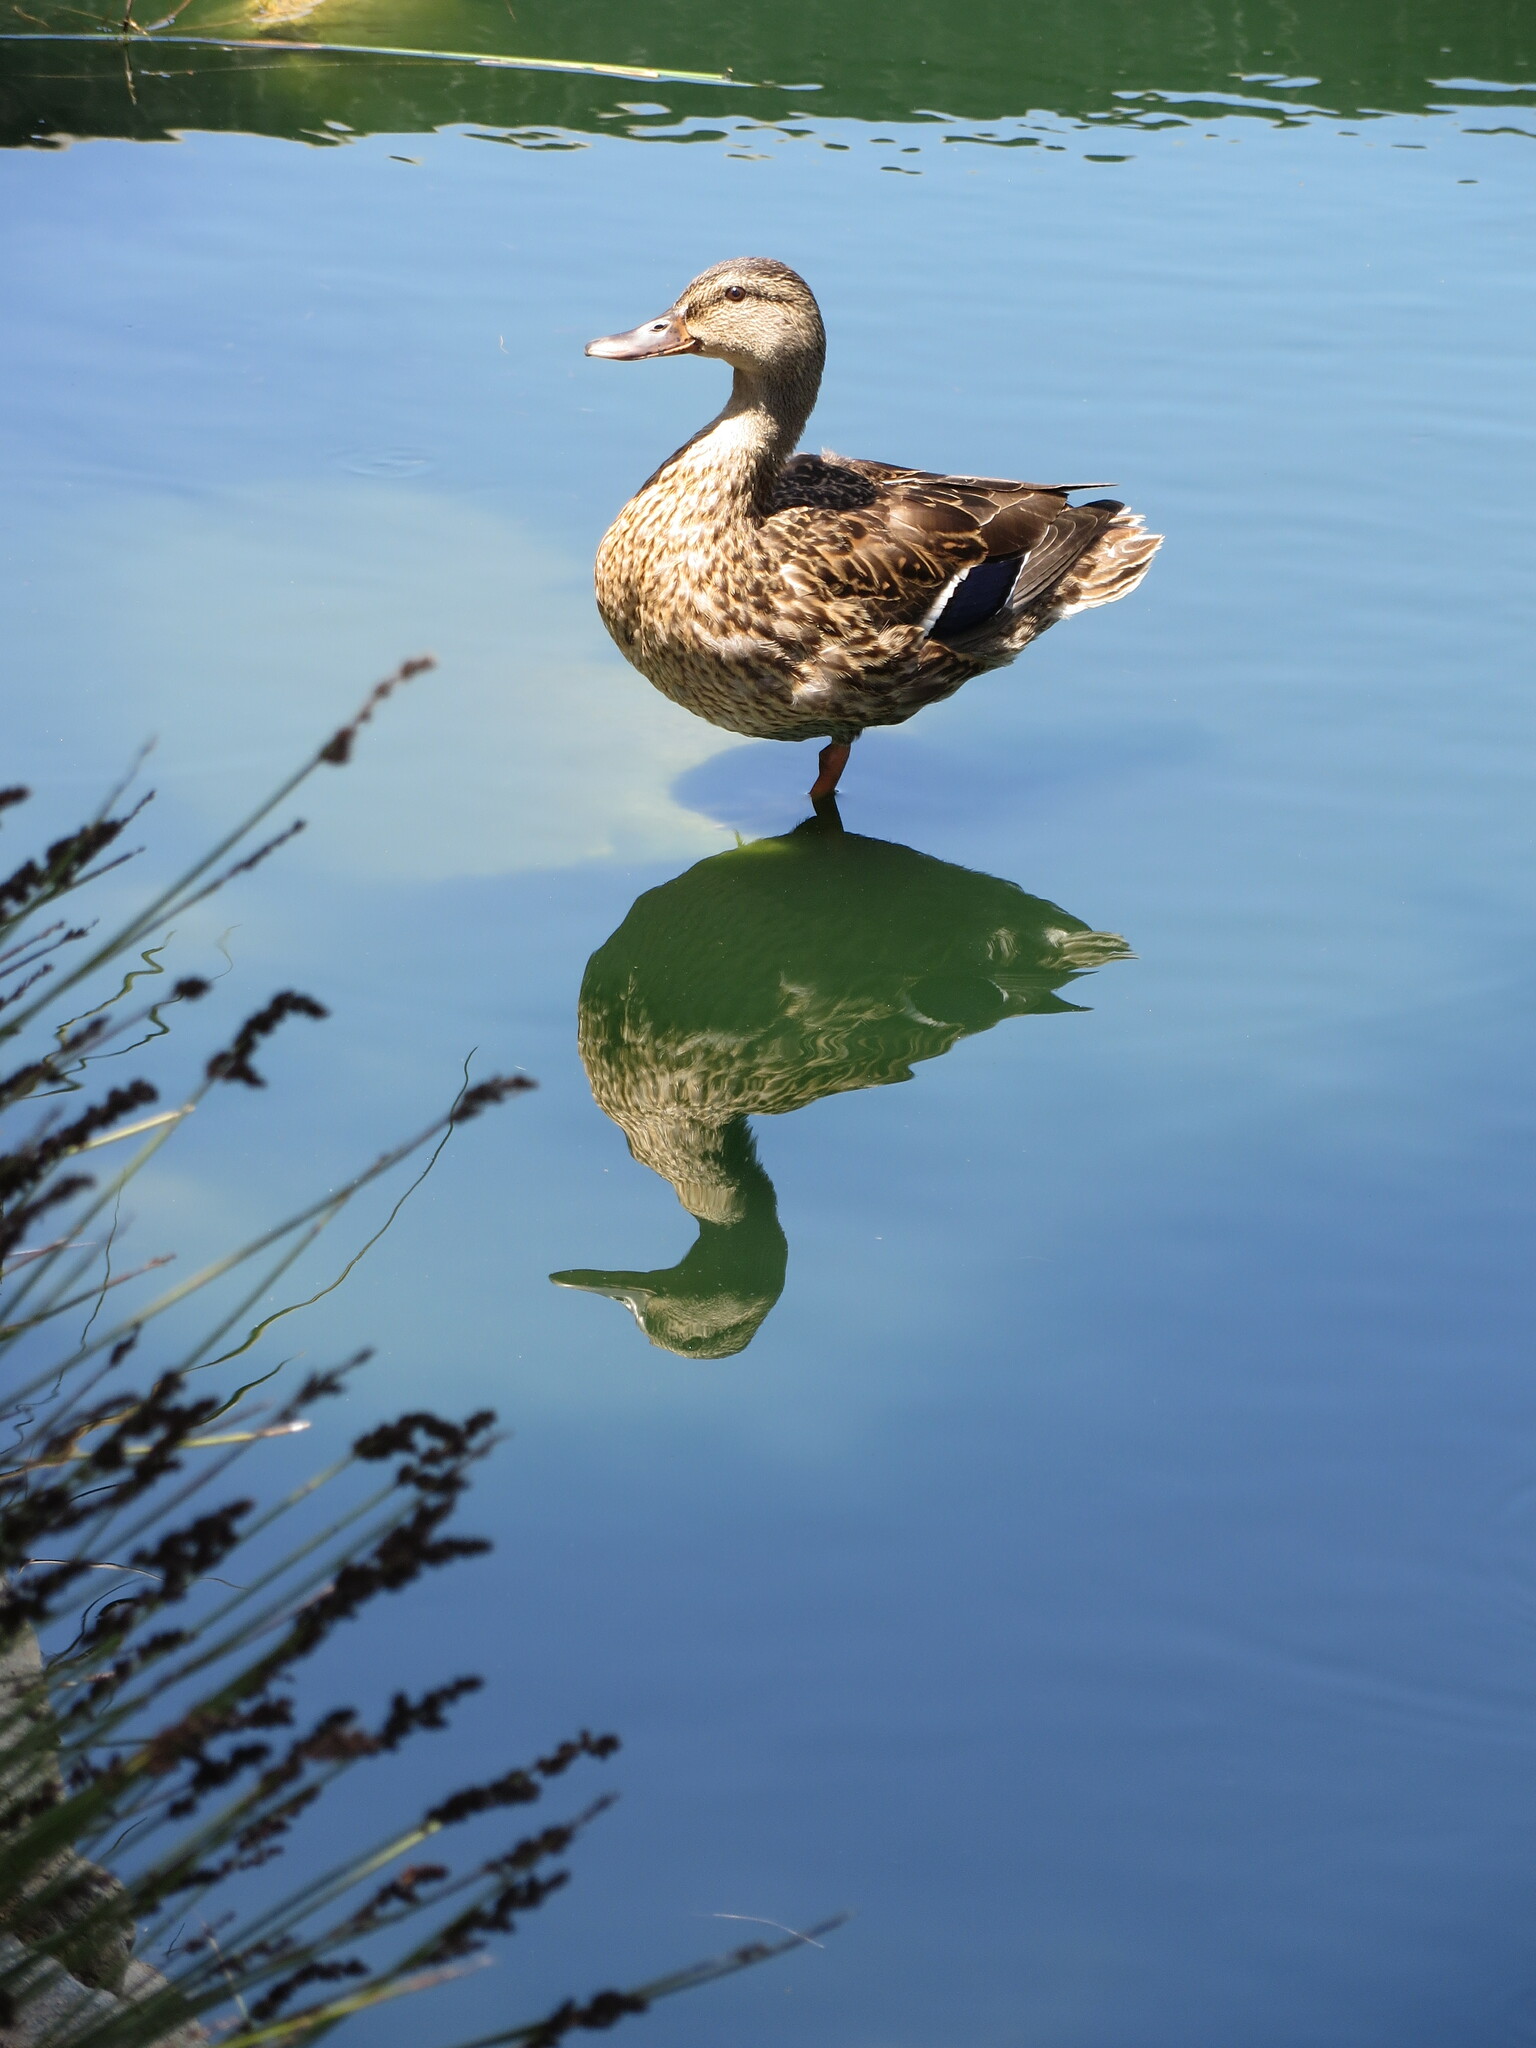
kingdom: Animalia
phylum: Chordata
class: Aves
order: Anseriformes
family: Anatidae
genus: Anas
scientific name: Anas platyrhynchos
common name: Mallard
